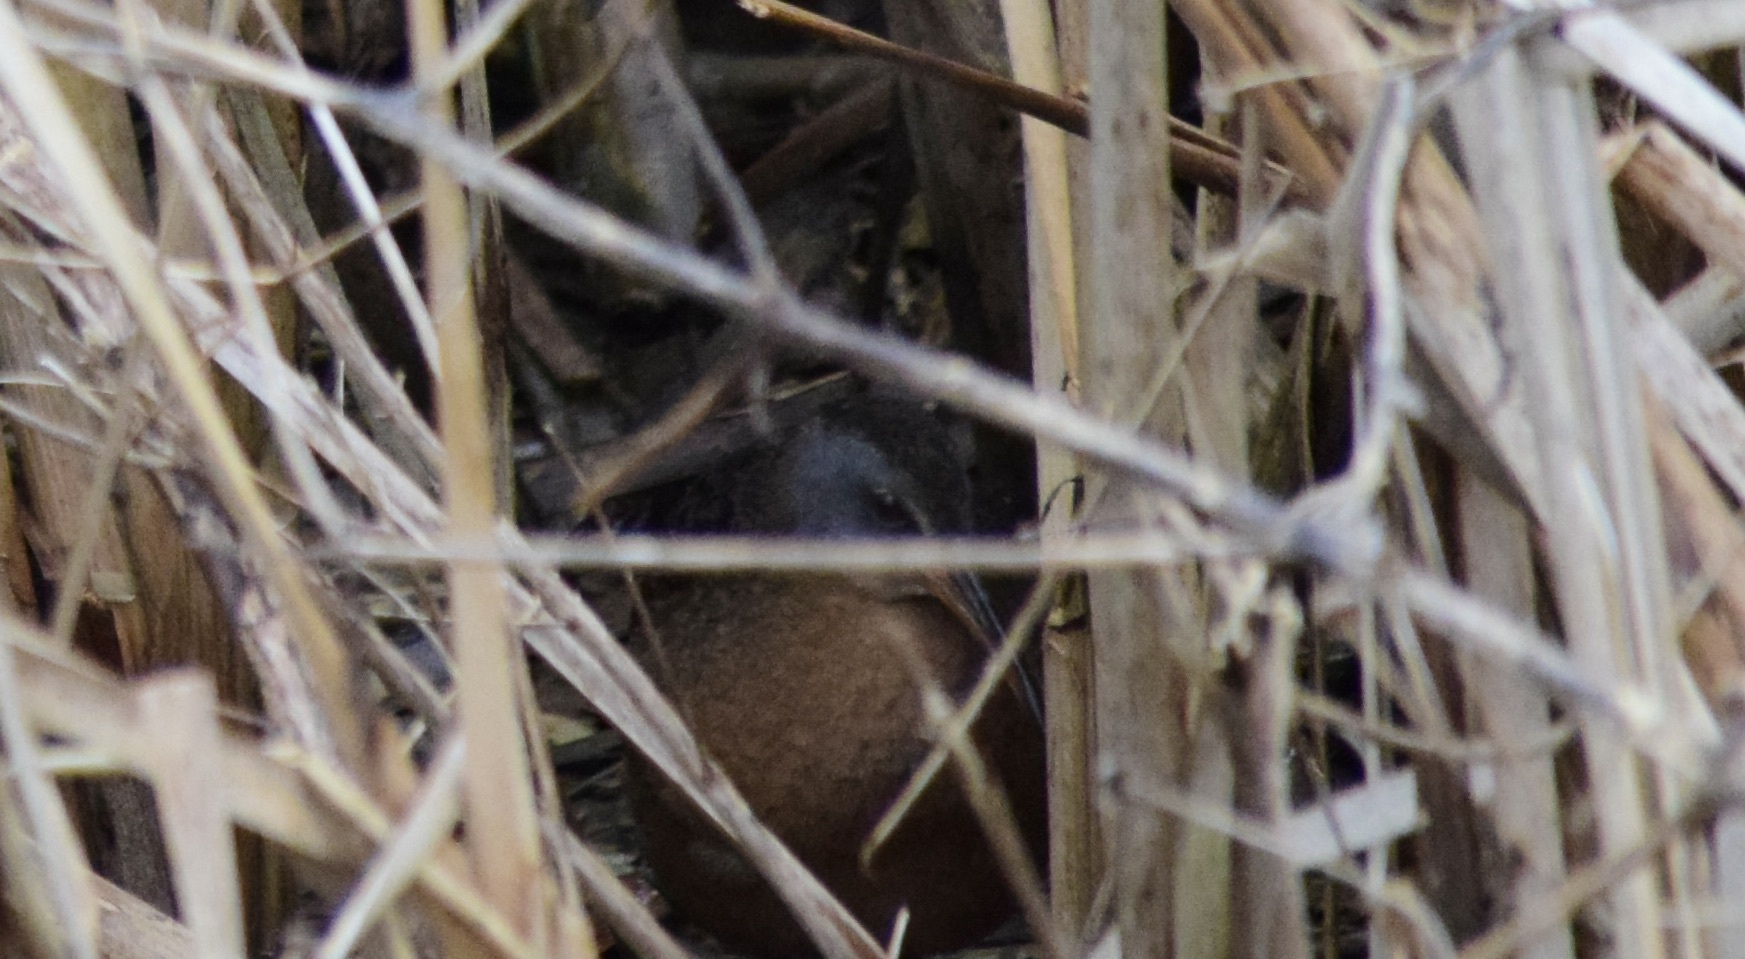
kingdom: Animalia
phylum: Chordata
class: Aves
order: Gruiformes
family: Rallidae
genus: Rallus
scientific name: Rallus limicola
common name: Virginia rail
